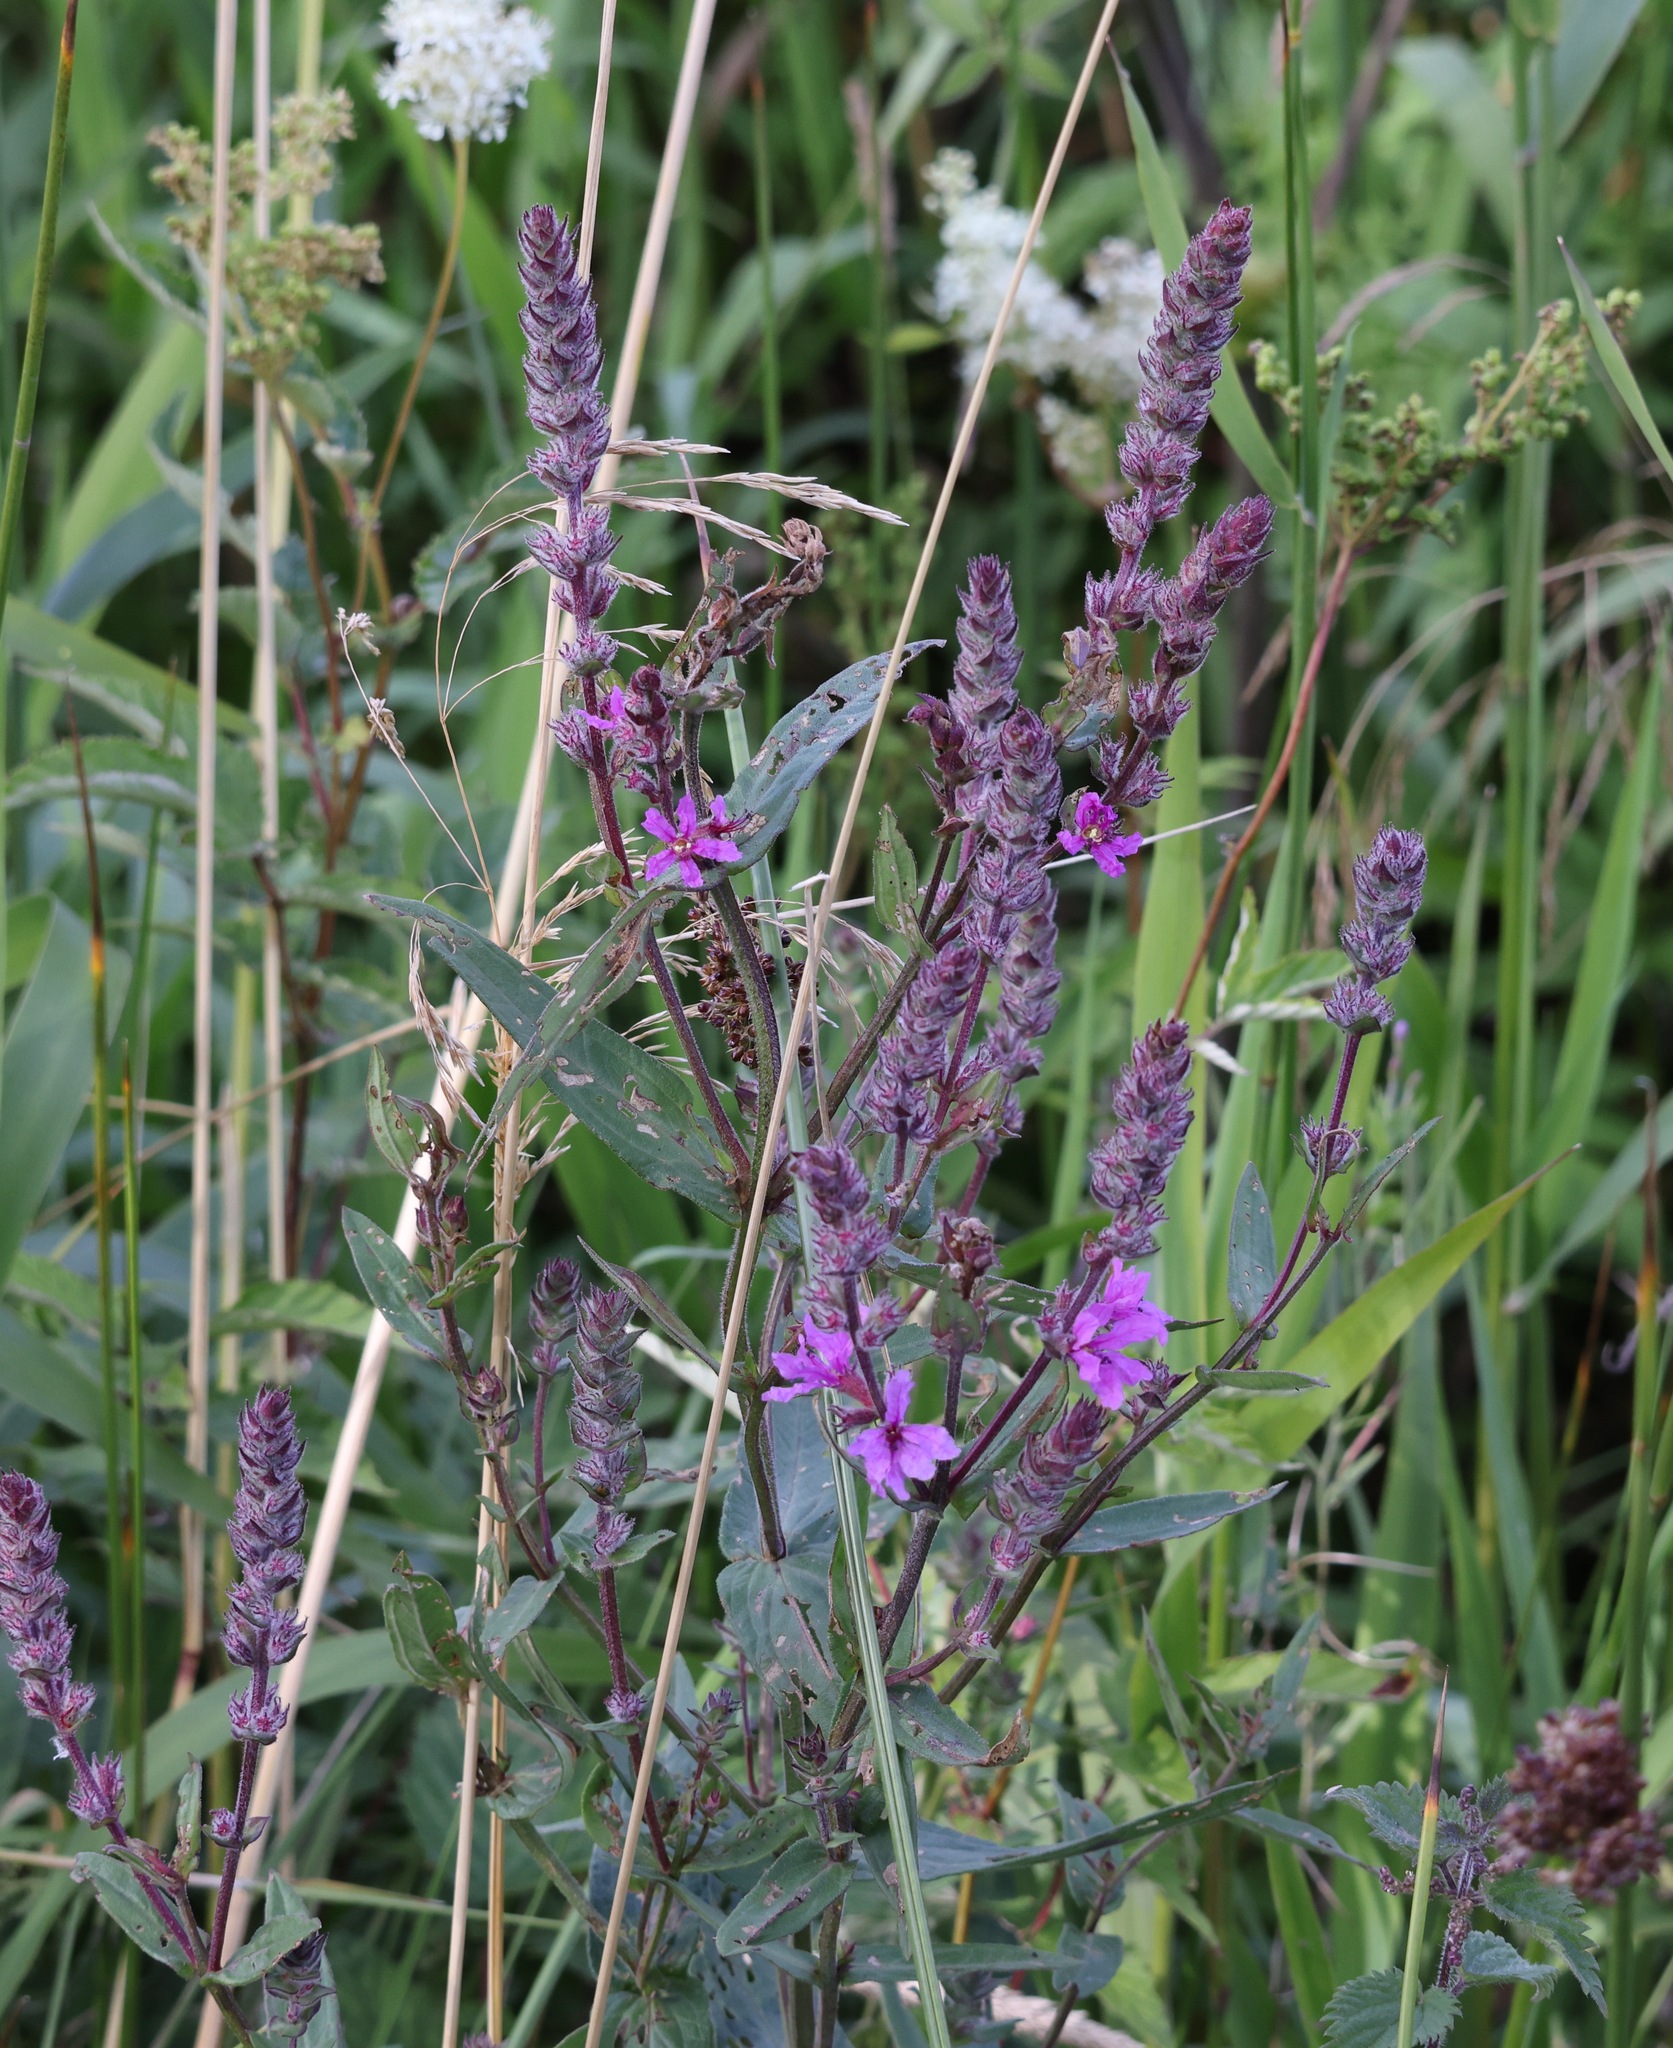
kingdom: Plantae
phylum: Tracheophyta
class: Magnoliopsida
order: Myrtales
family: Lythraceae
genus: Lythrum
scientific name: Lythrum salicaria
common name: Purple loosestrife
